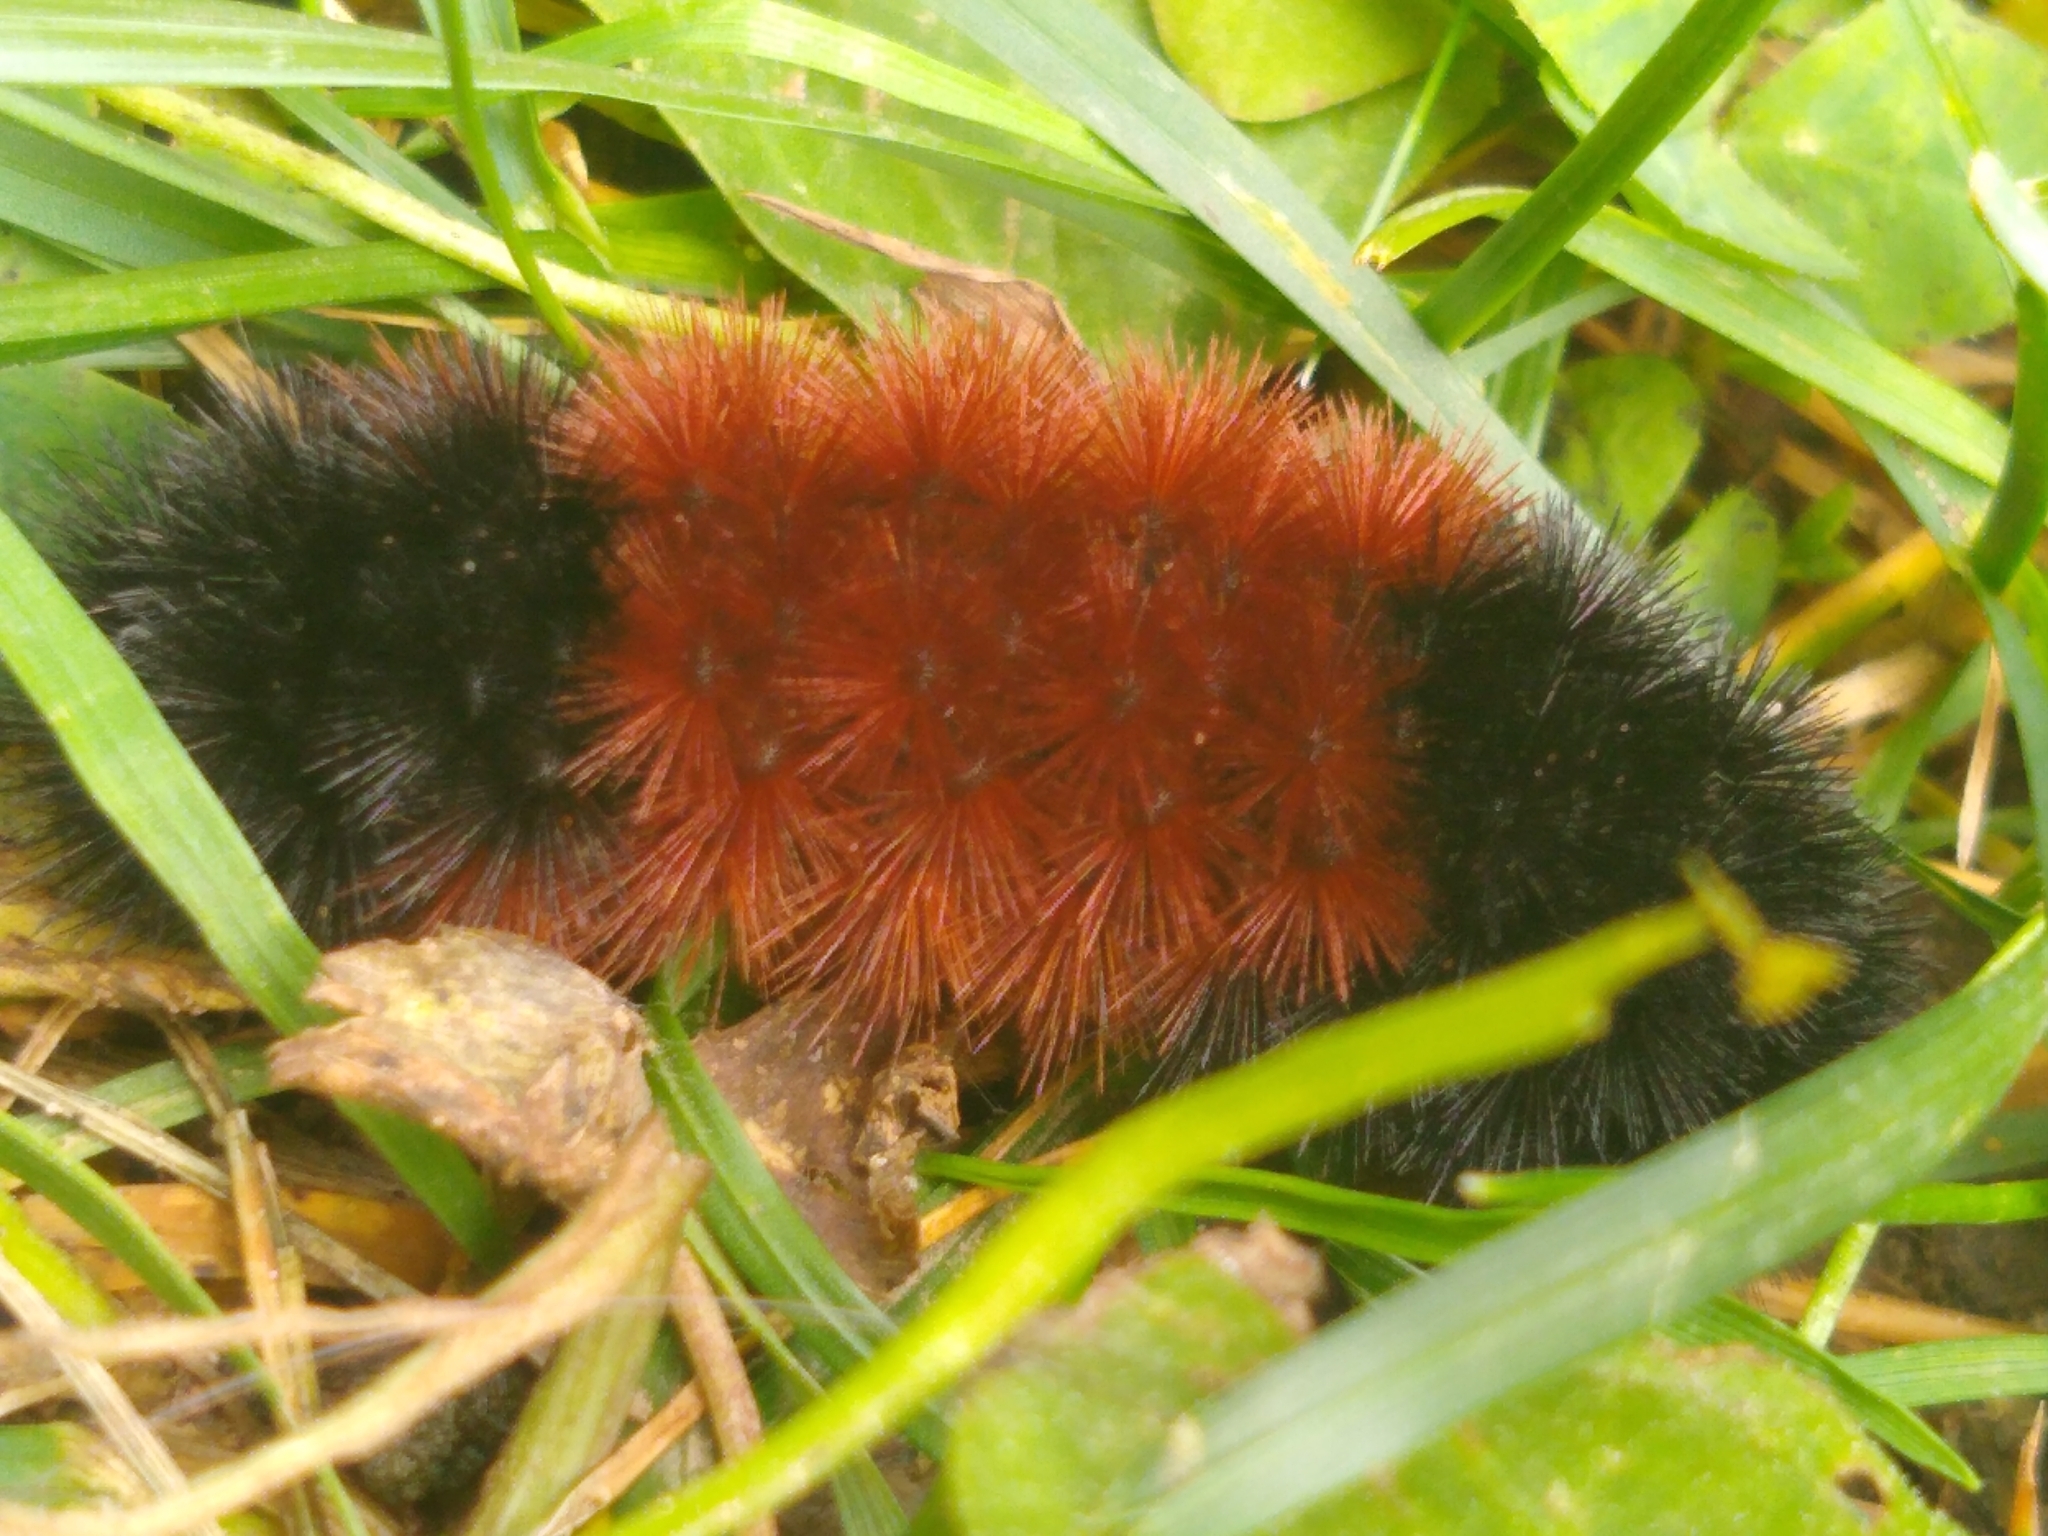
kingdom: Animalia
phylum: Arthropoda
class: Insecta
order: Lepidoptera
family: Erebidae
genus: Pyrrharctia
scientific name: Pyrrharctia isabella
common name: Isabella tiger moth
